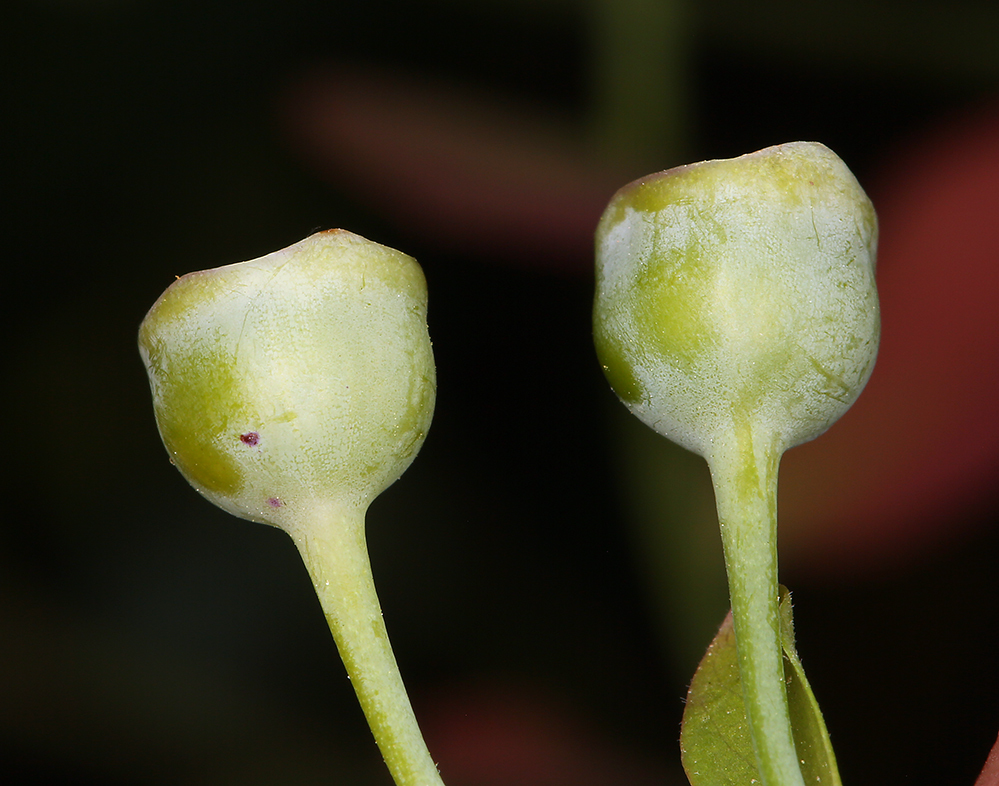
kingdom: Plantae
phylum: Tracheophyta
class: Magnoliopsida
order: Ericales
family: Ericaceae
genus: Vaccinium
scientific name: Vaccinium shastense
